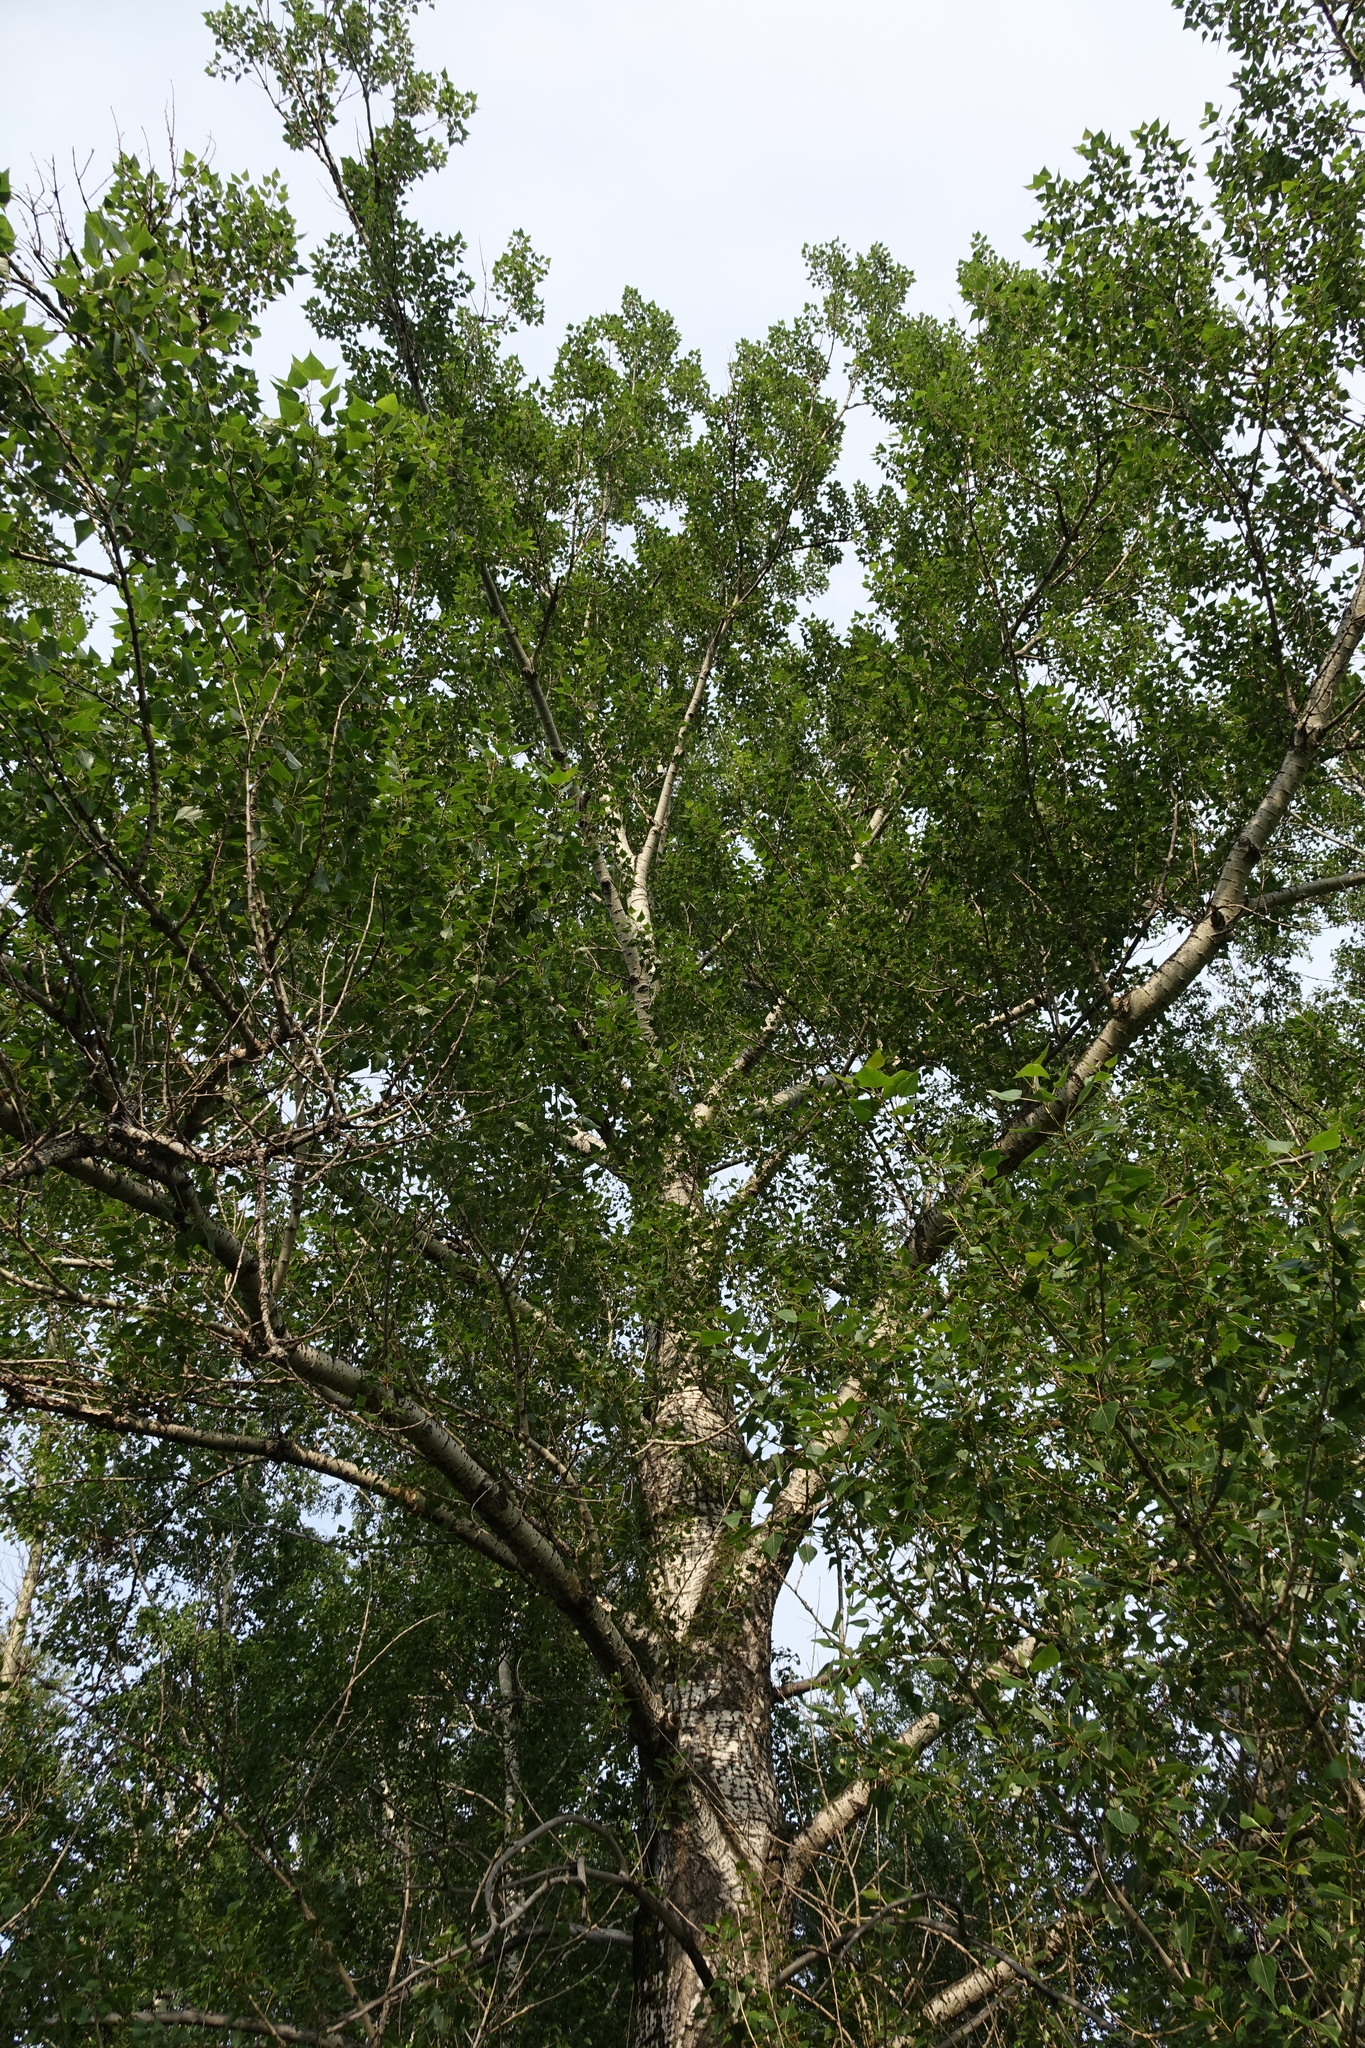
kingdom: Plantae
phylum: Tracheophyta
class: Magnoliopsida
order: Malpighiales
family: Salicaceae
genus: Populus
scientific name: Populus nigra
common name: Black poplar
